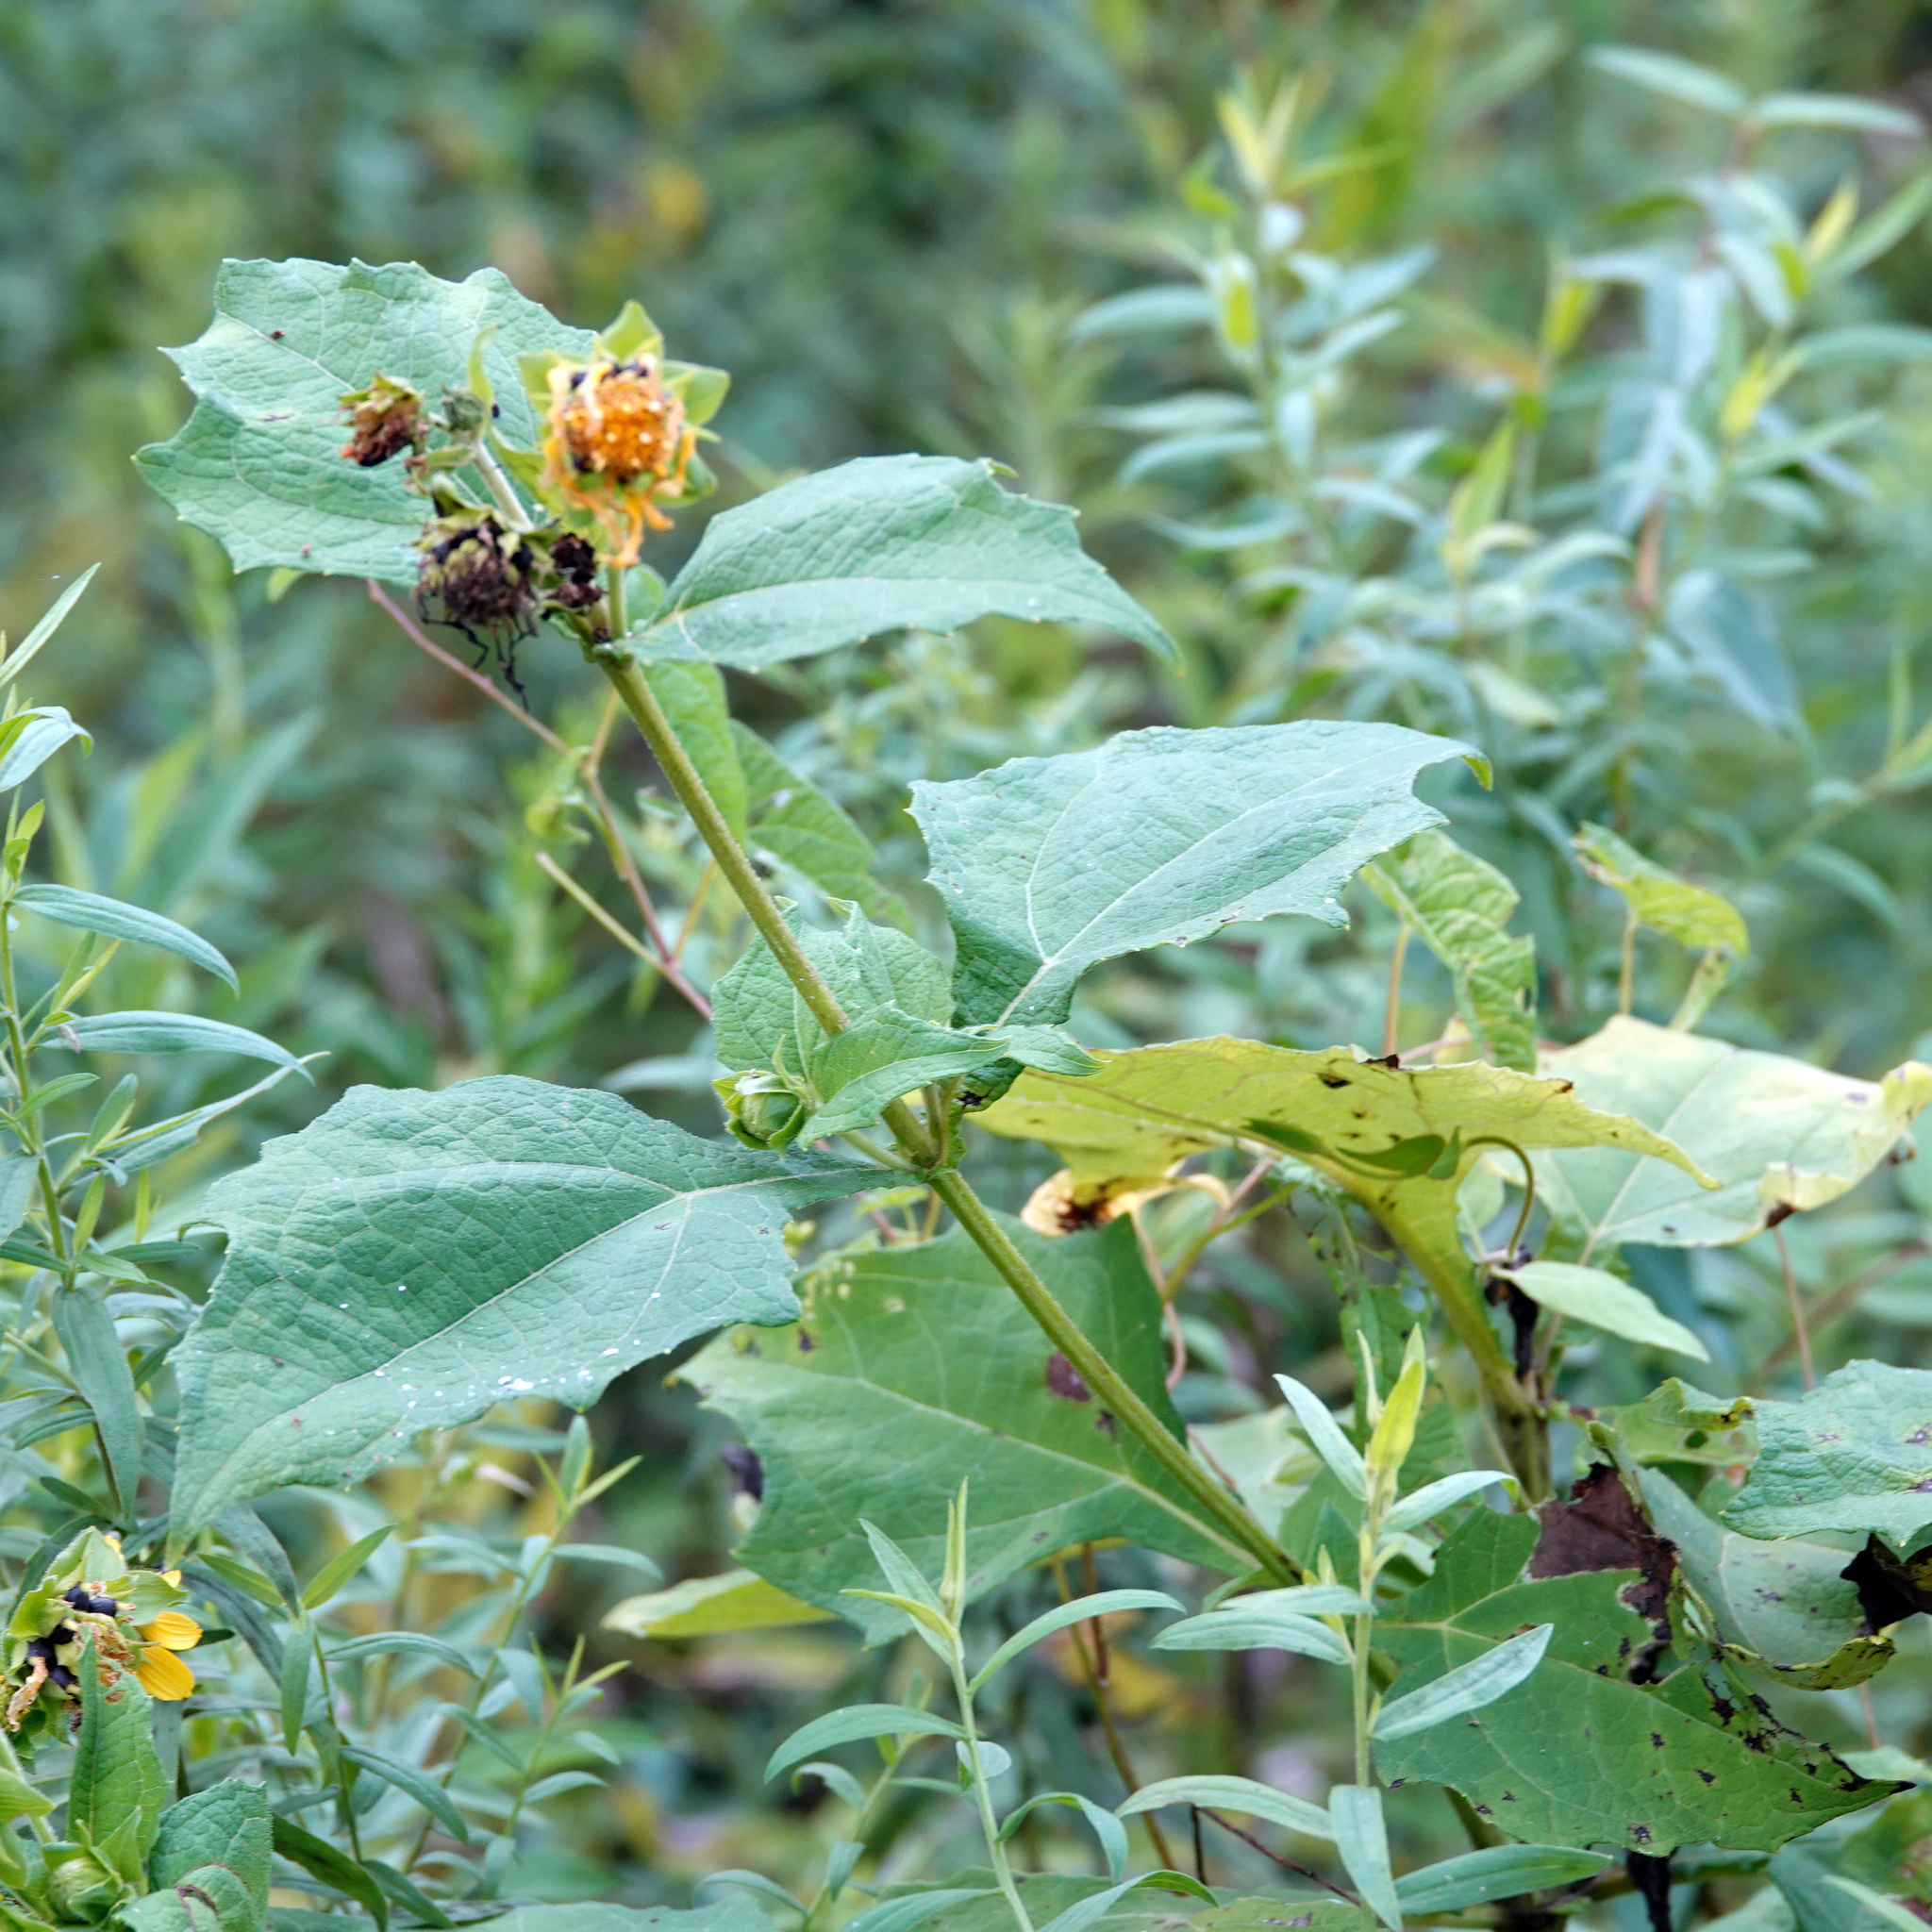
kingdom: Plantae
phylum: Tracheophyta
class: Magnoliopsida
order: Asterales
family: Asteraceae
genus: Smallanthus
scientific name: Smallanthus uvedalia
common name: Bear's-foot
